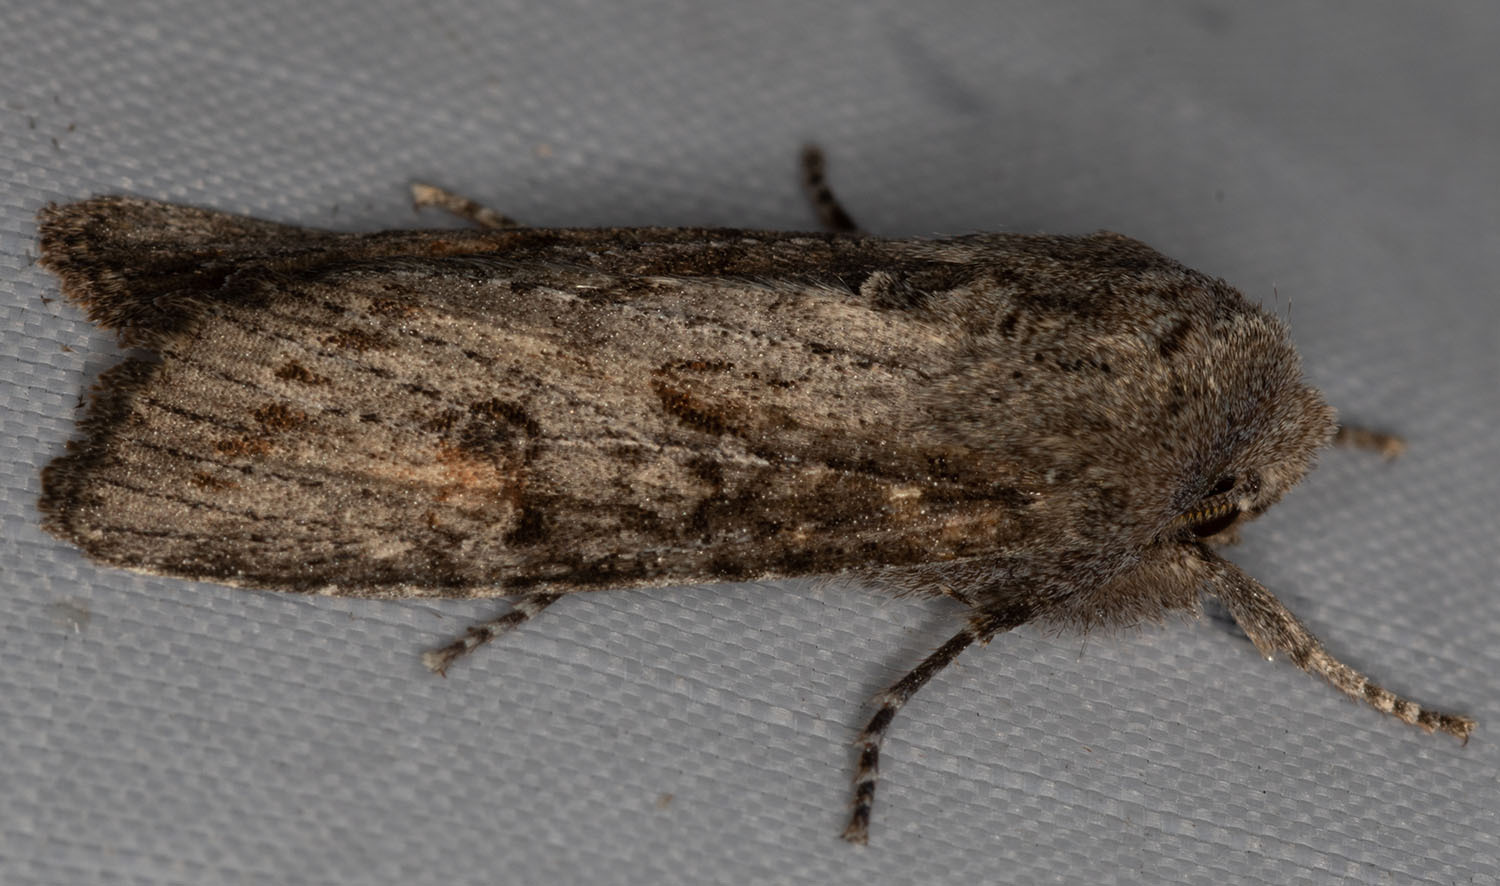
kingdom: Animalia
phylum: Arthropoda
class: Insecta
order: Lepidoptera
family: Noctuidae
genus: Egira
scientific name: Egira curialis
